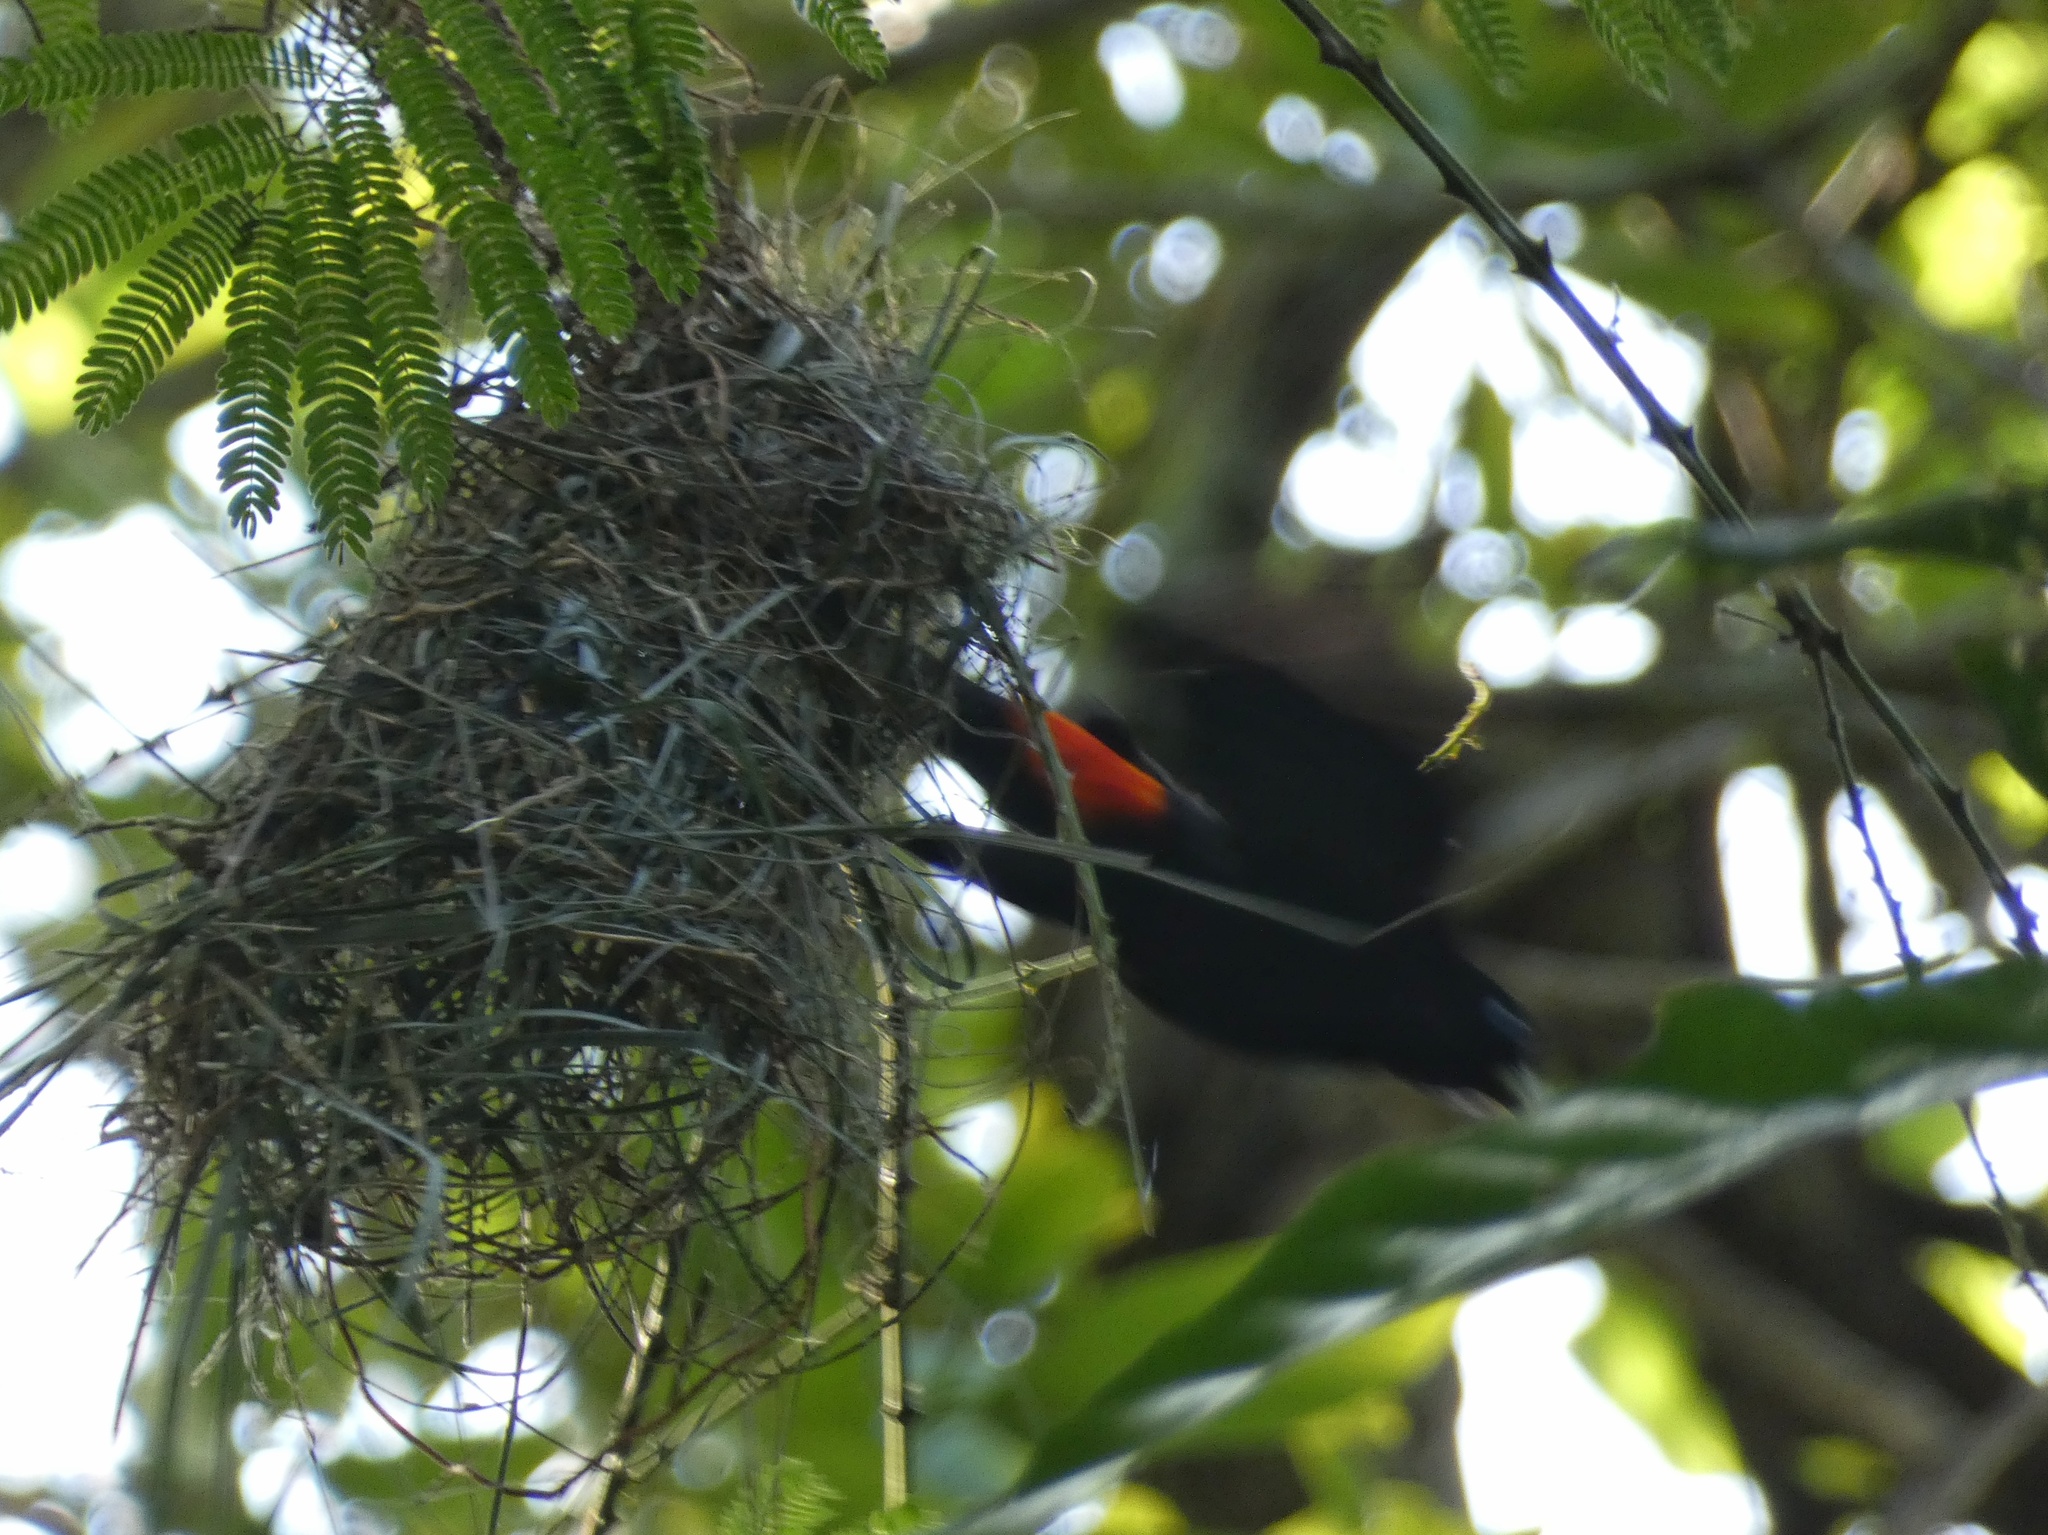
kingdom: Animalia
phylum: Chordata
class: Aves
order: Passeriformes
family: Icteridae
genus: Cacicus
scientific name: Cacicus uropygialis
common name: Scarlet-rumped cacique
